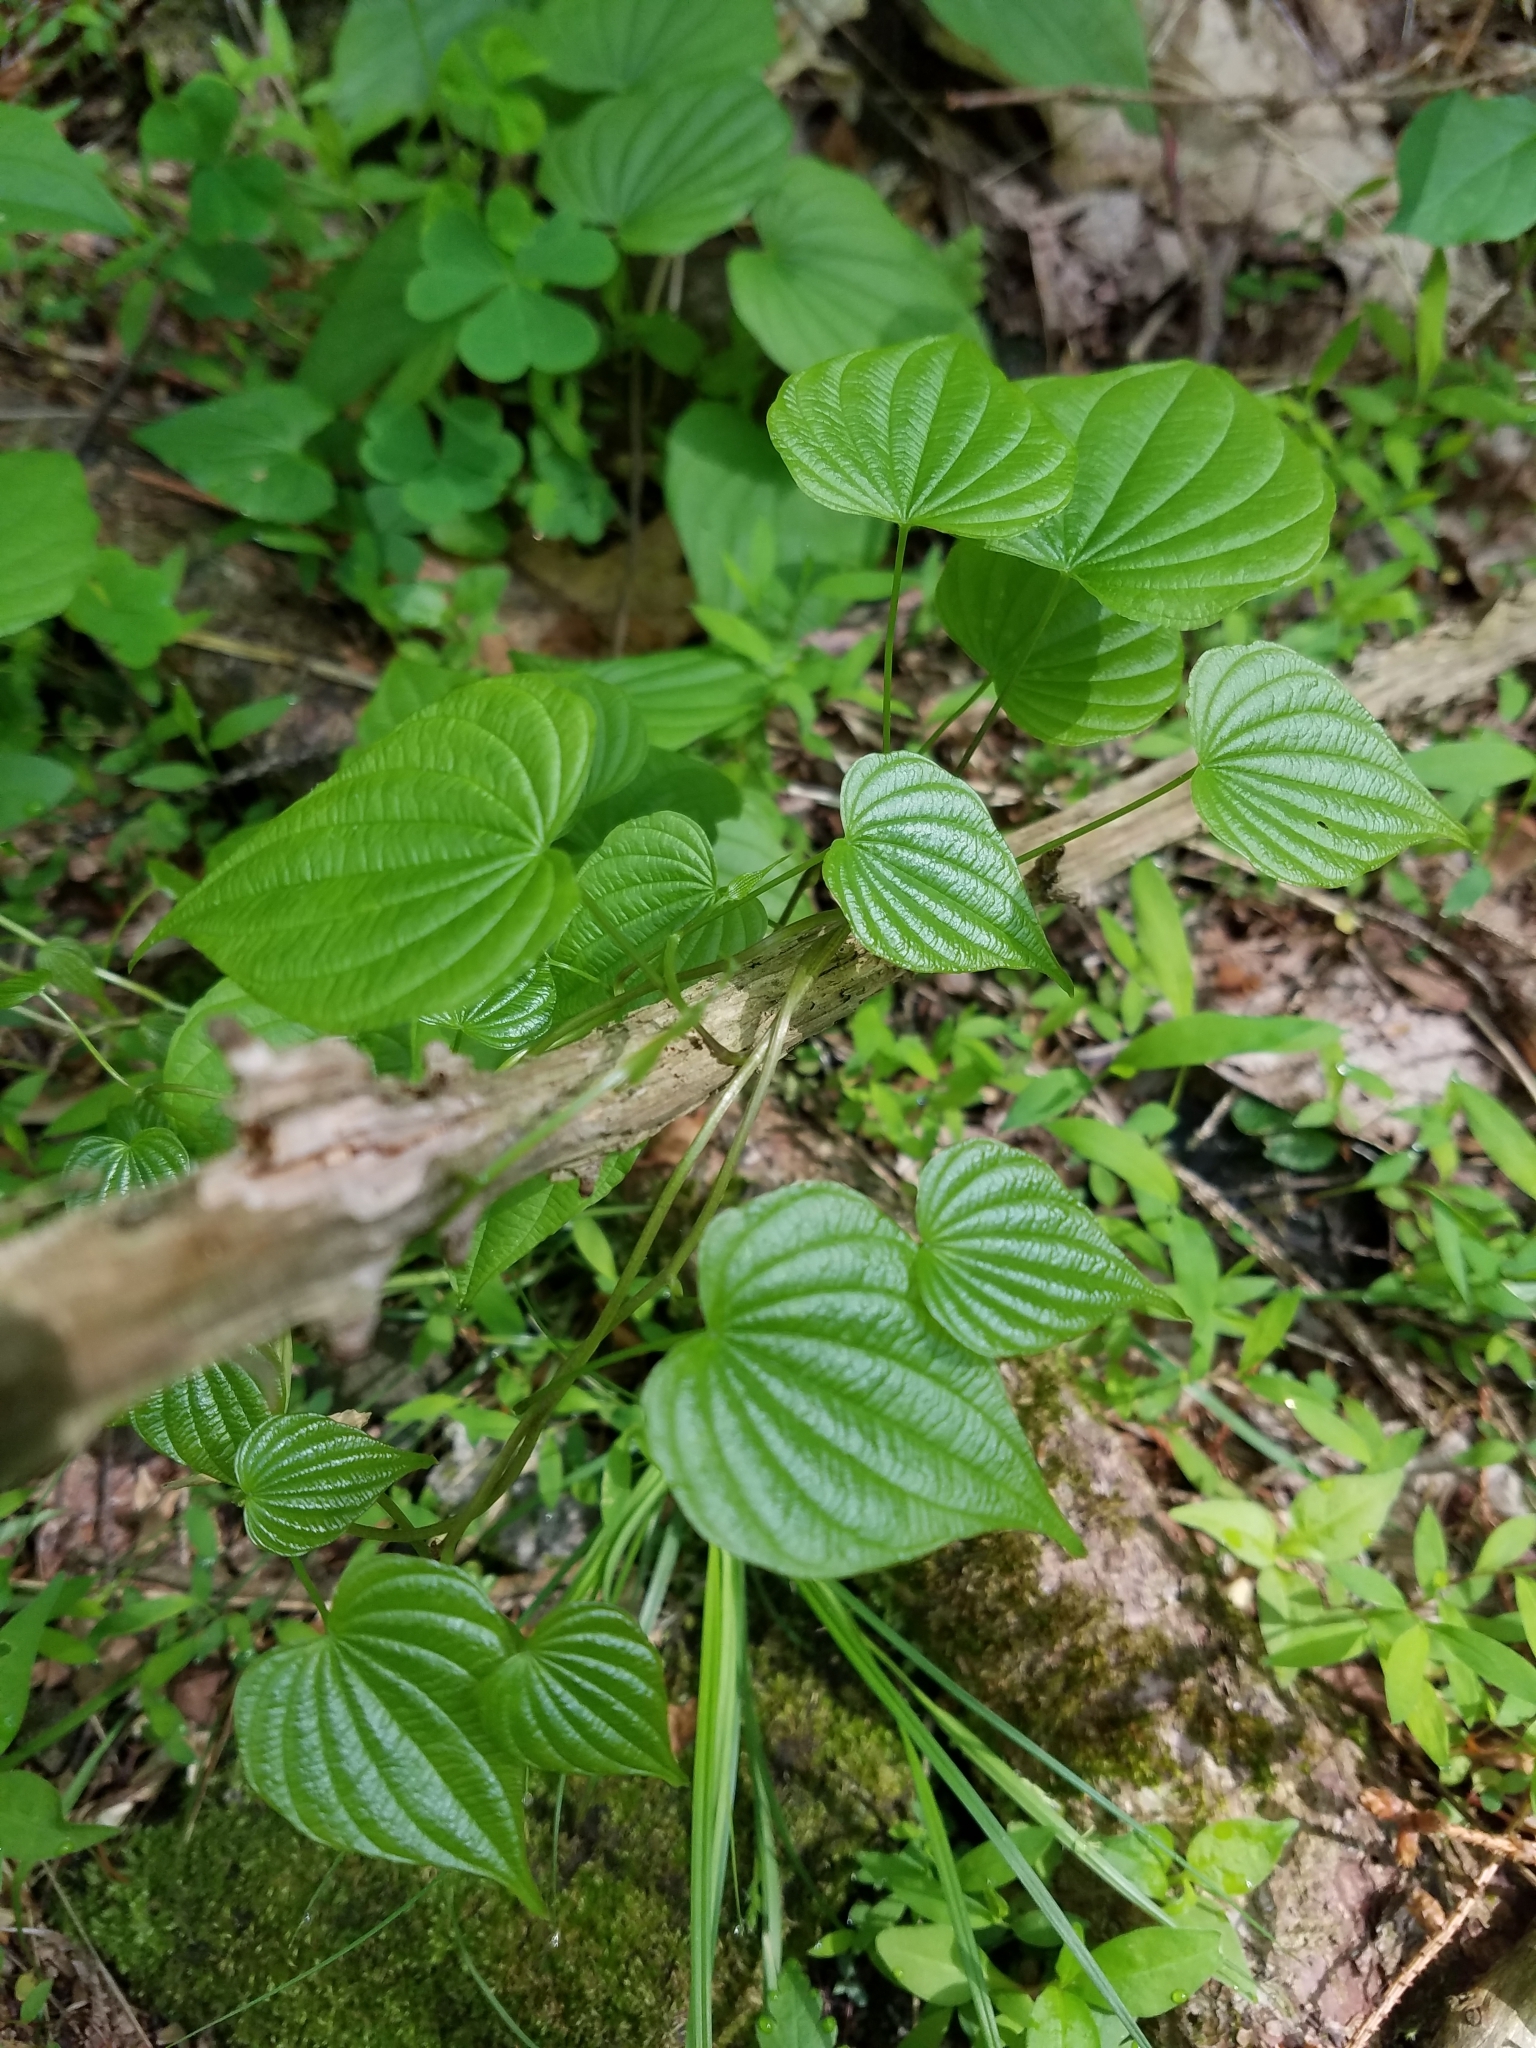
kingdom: Plantae
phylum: Tracheophyta
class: Liliopsida
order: Dioscoreales
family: Dioscoreaceae
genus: Dioscorea
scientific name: Dioscorea villosa
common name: Wild yam
